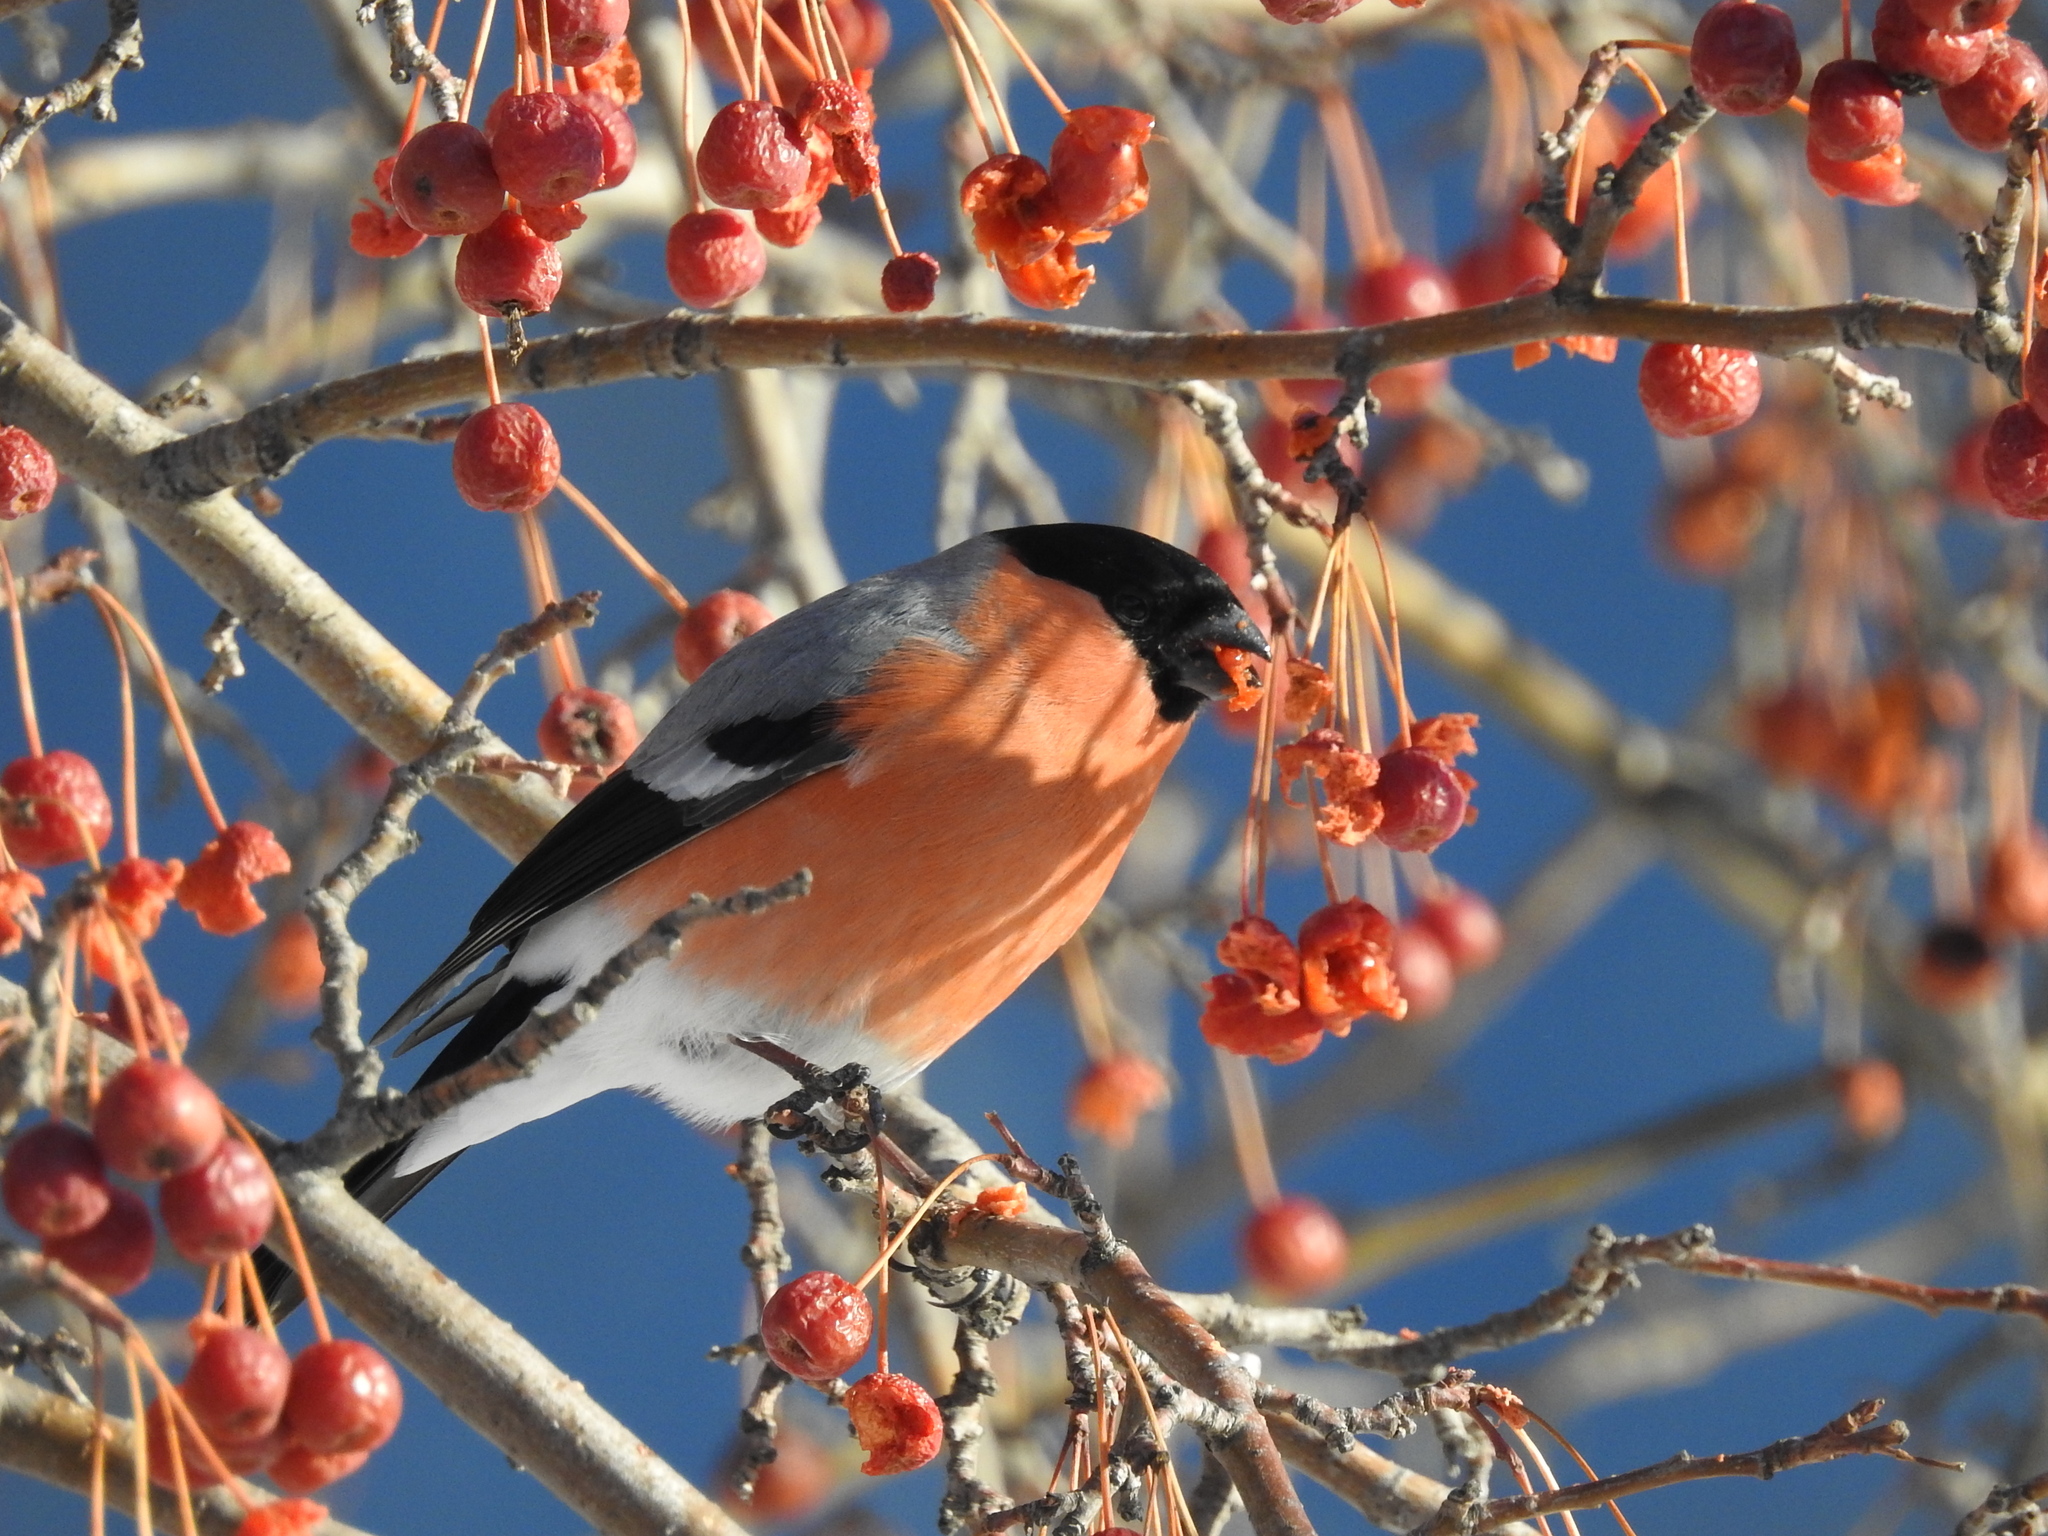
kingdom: Animalia
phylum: Chordata
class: Aves
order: Passeriformes
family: Fringillidae
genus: Pyrrhula
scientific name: Pyrrhula pyrrhula
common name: Eurasian bullfinch
